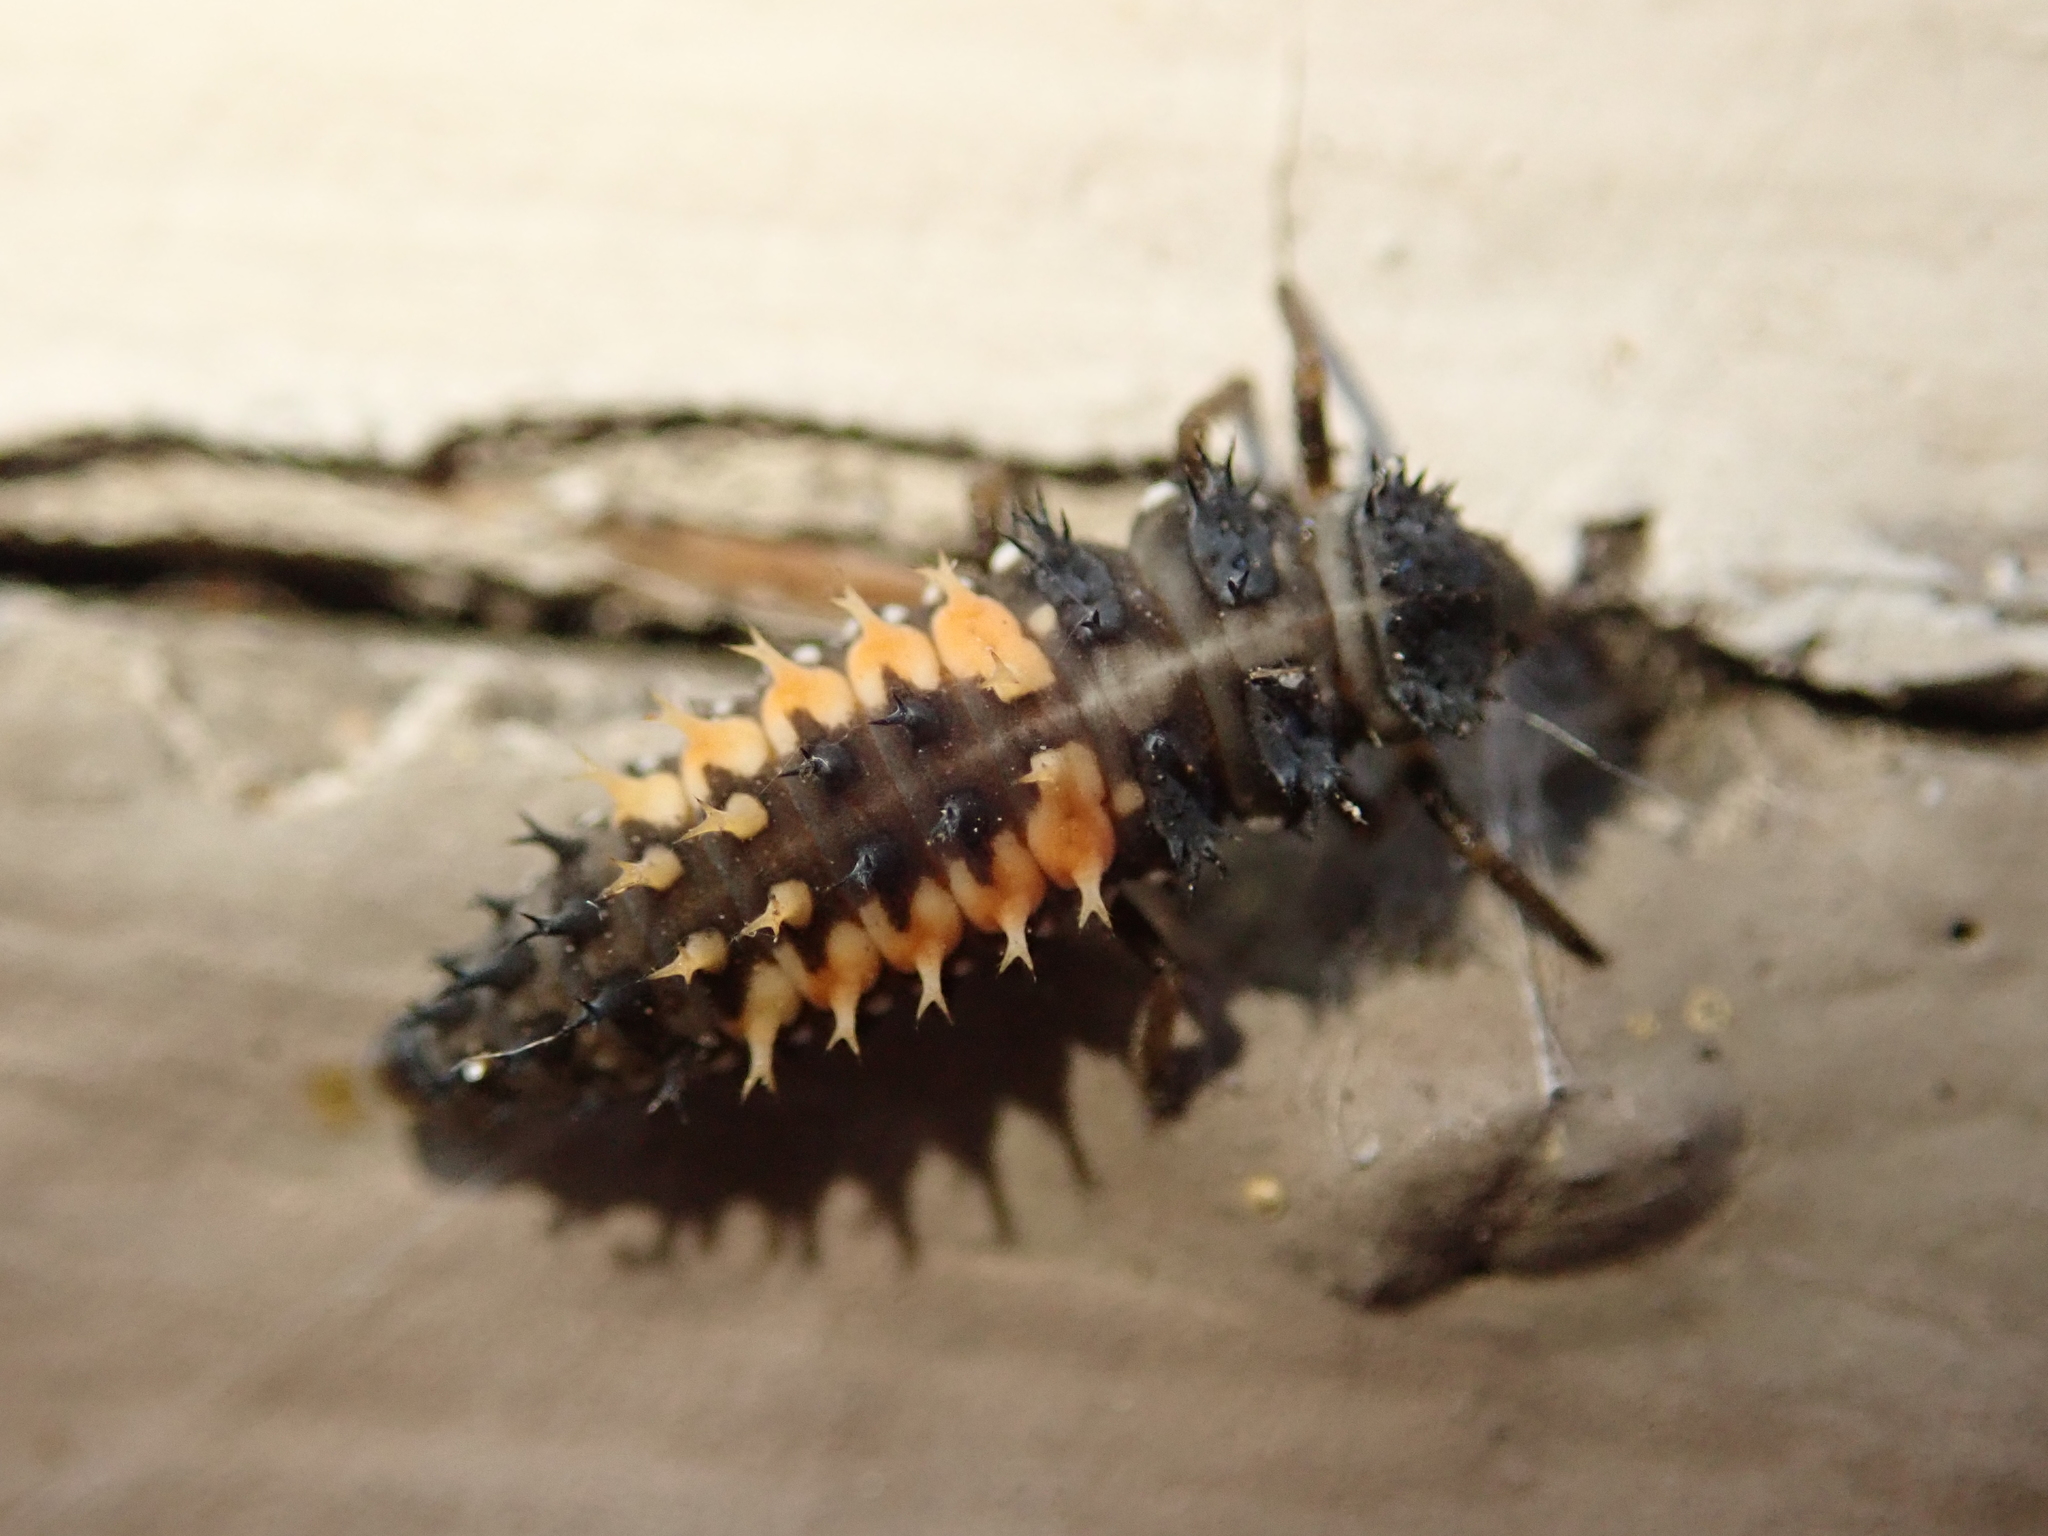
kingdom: Animalia
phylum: Arthropoda
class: Insecta
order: Coleoptera
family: Coccinellidae
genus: Harmonia
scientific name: Harmonia axyridis
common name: Harlequin ladybird
